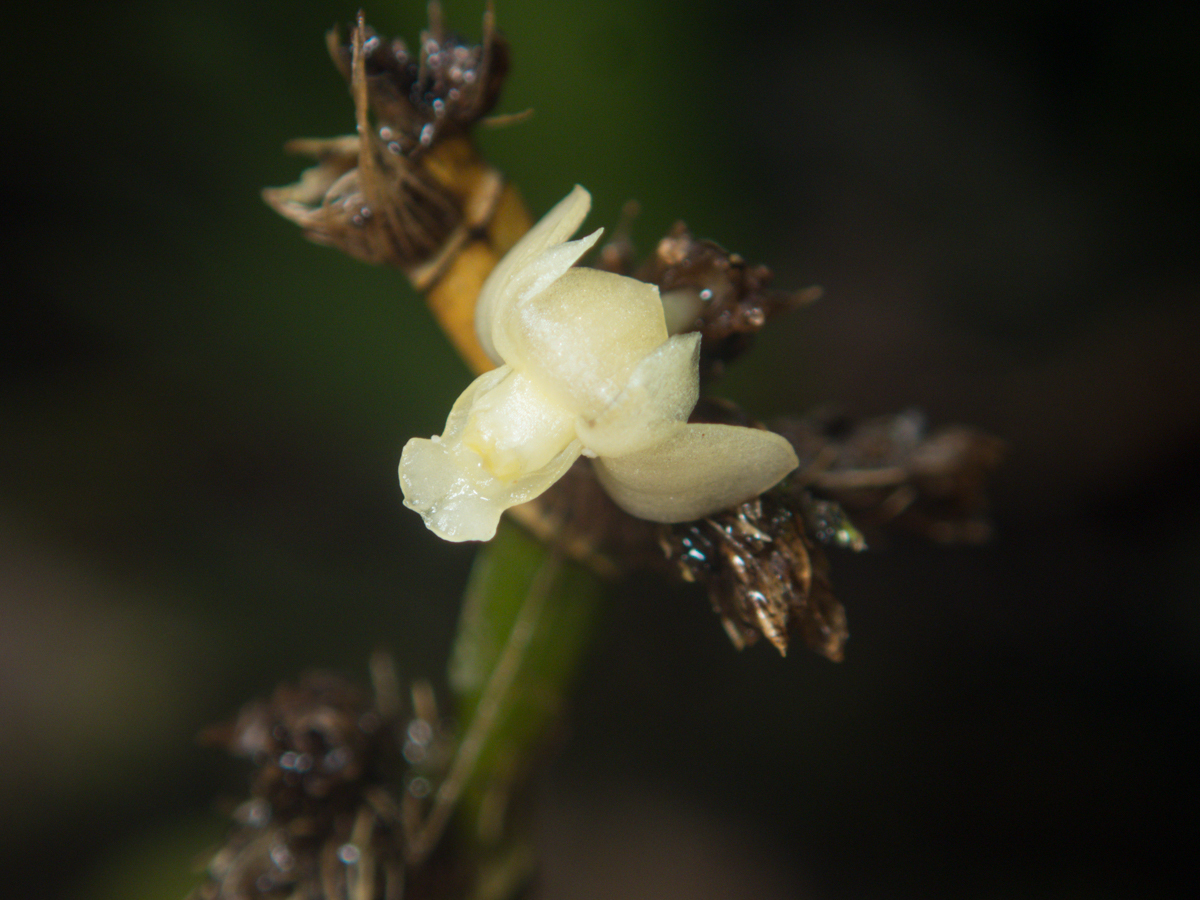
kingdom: Plantae
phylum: Tracheophyta
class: Liliopsida
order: Asparagales
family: Orchidaceae
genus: Dendrobium
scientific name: Dendrobium aloifolium
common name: Aloe-like dendrobium
